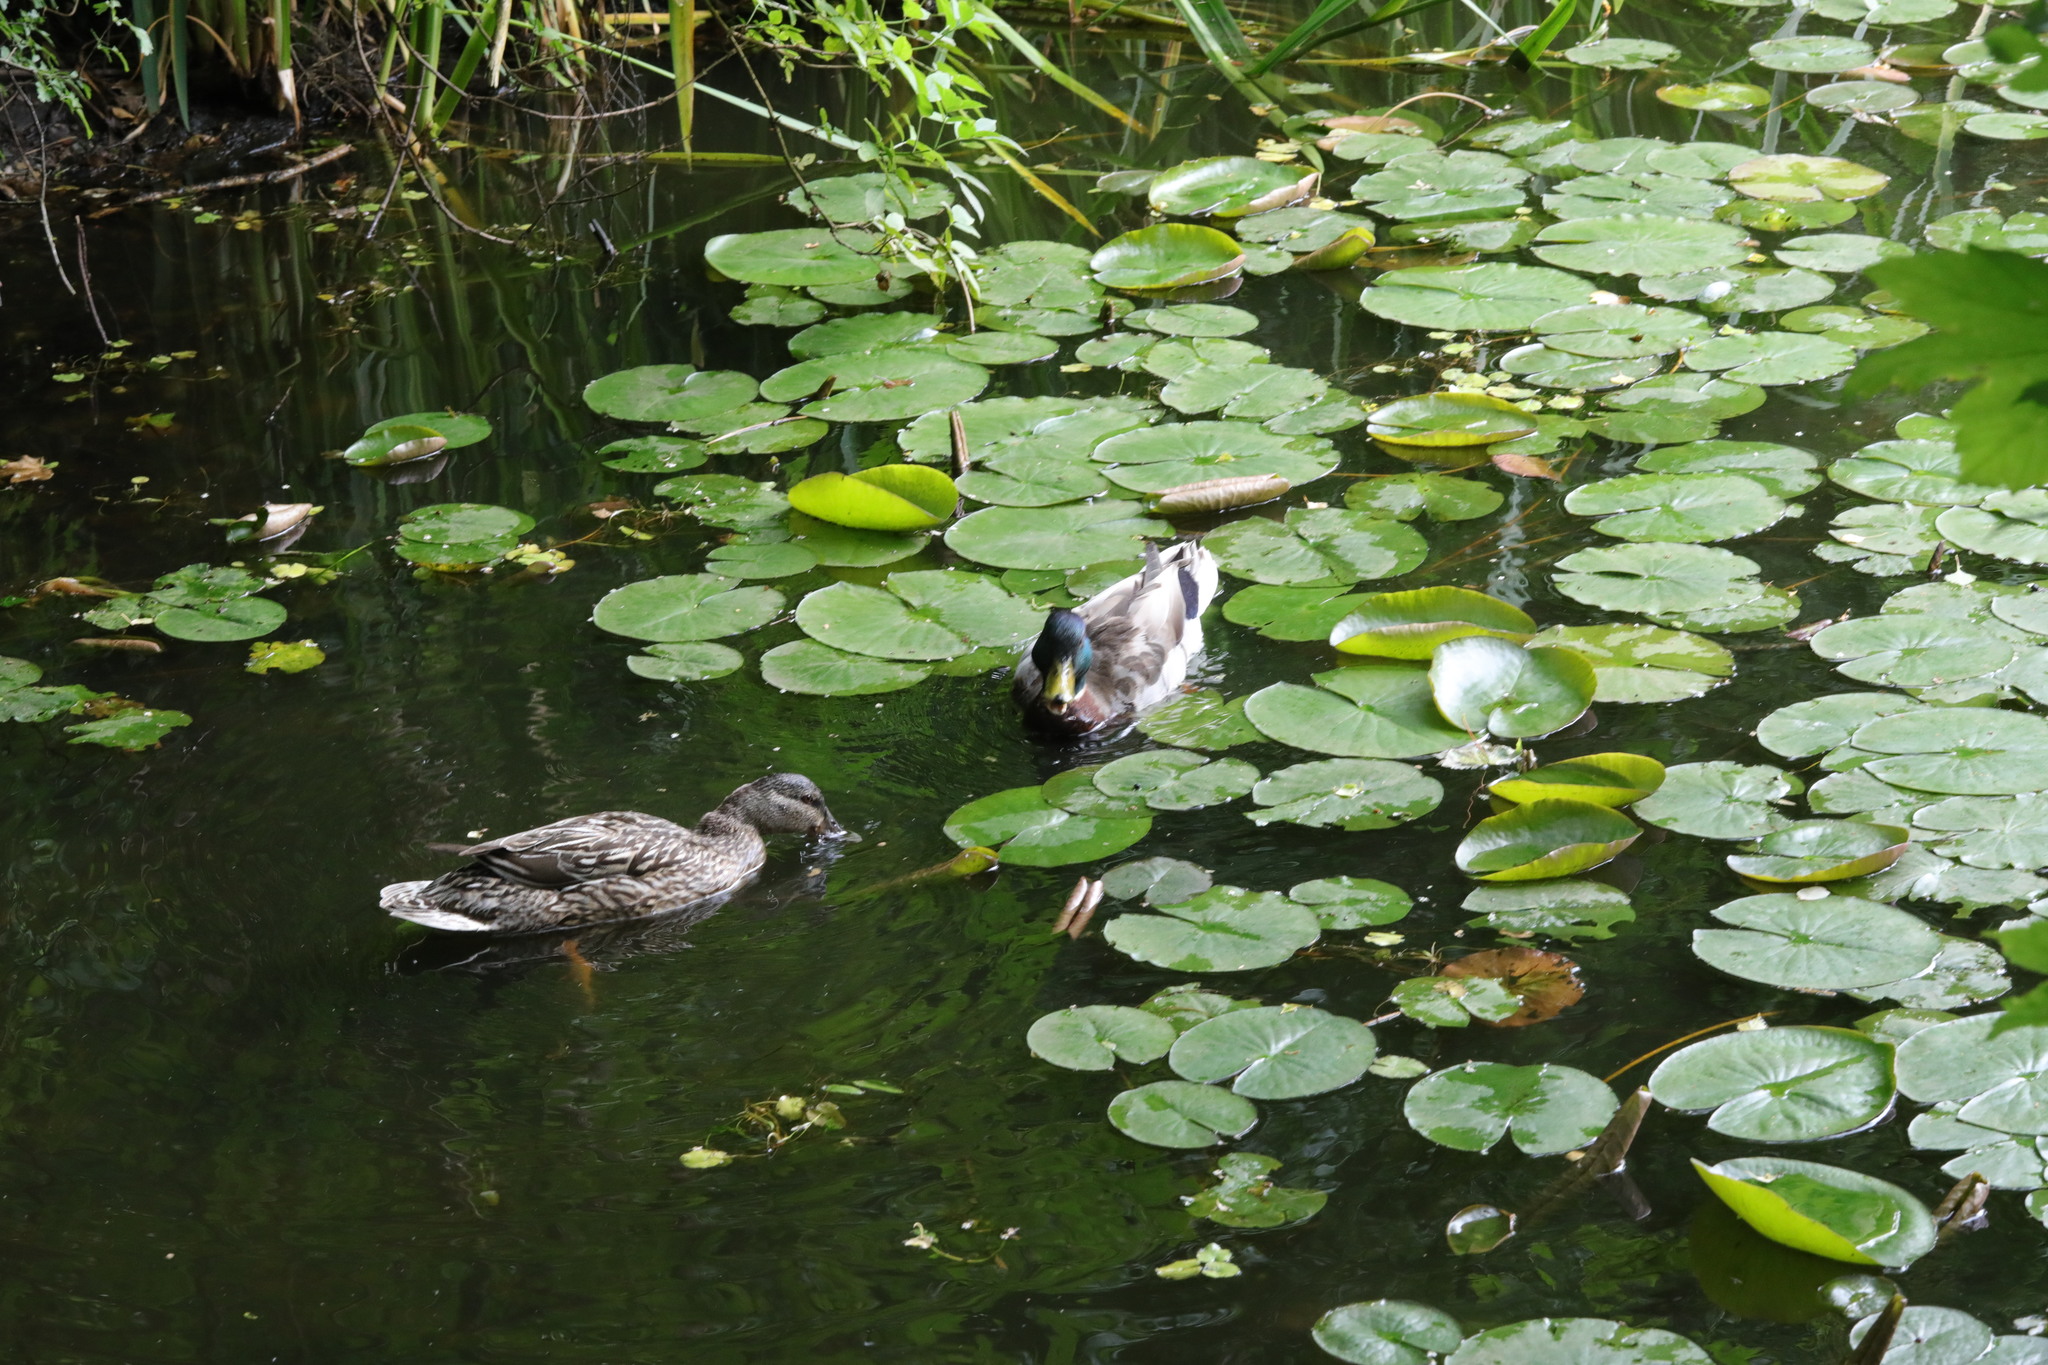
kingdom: Animalia
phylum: Chordata
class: Aves
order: Anseriformes
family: Anatidae
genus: Anas
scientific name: Anas platyrhynchos
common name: Mallard
